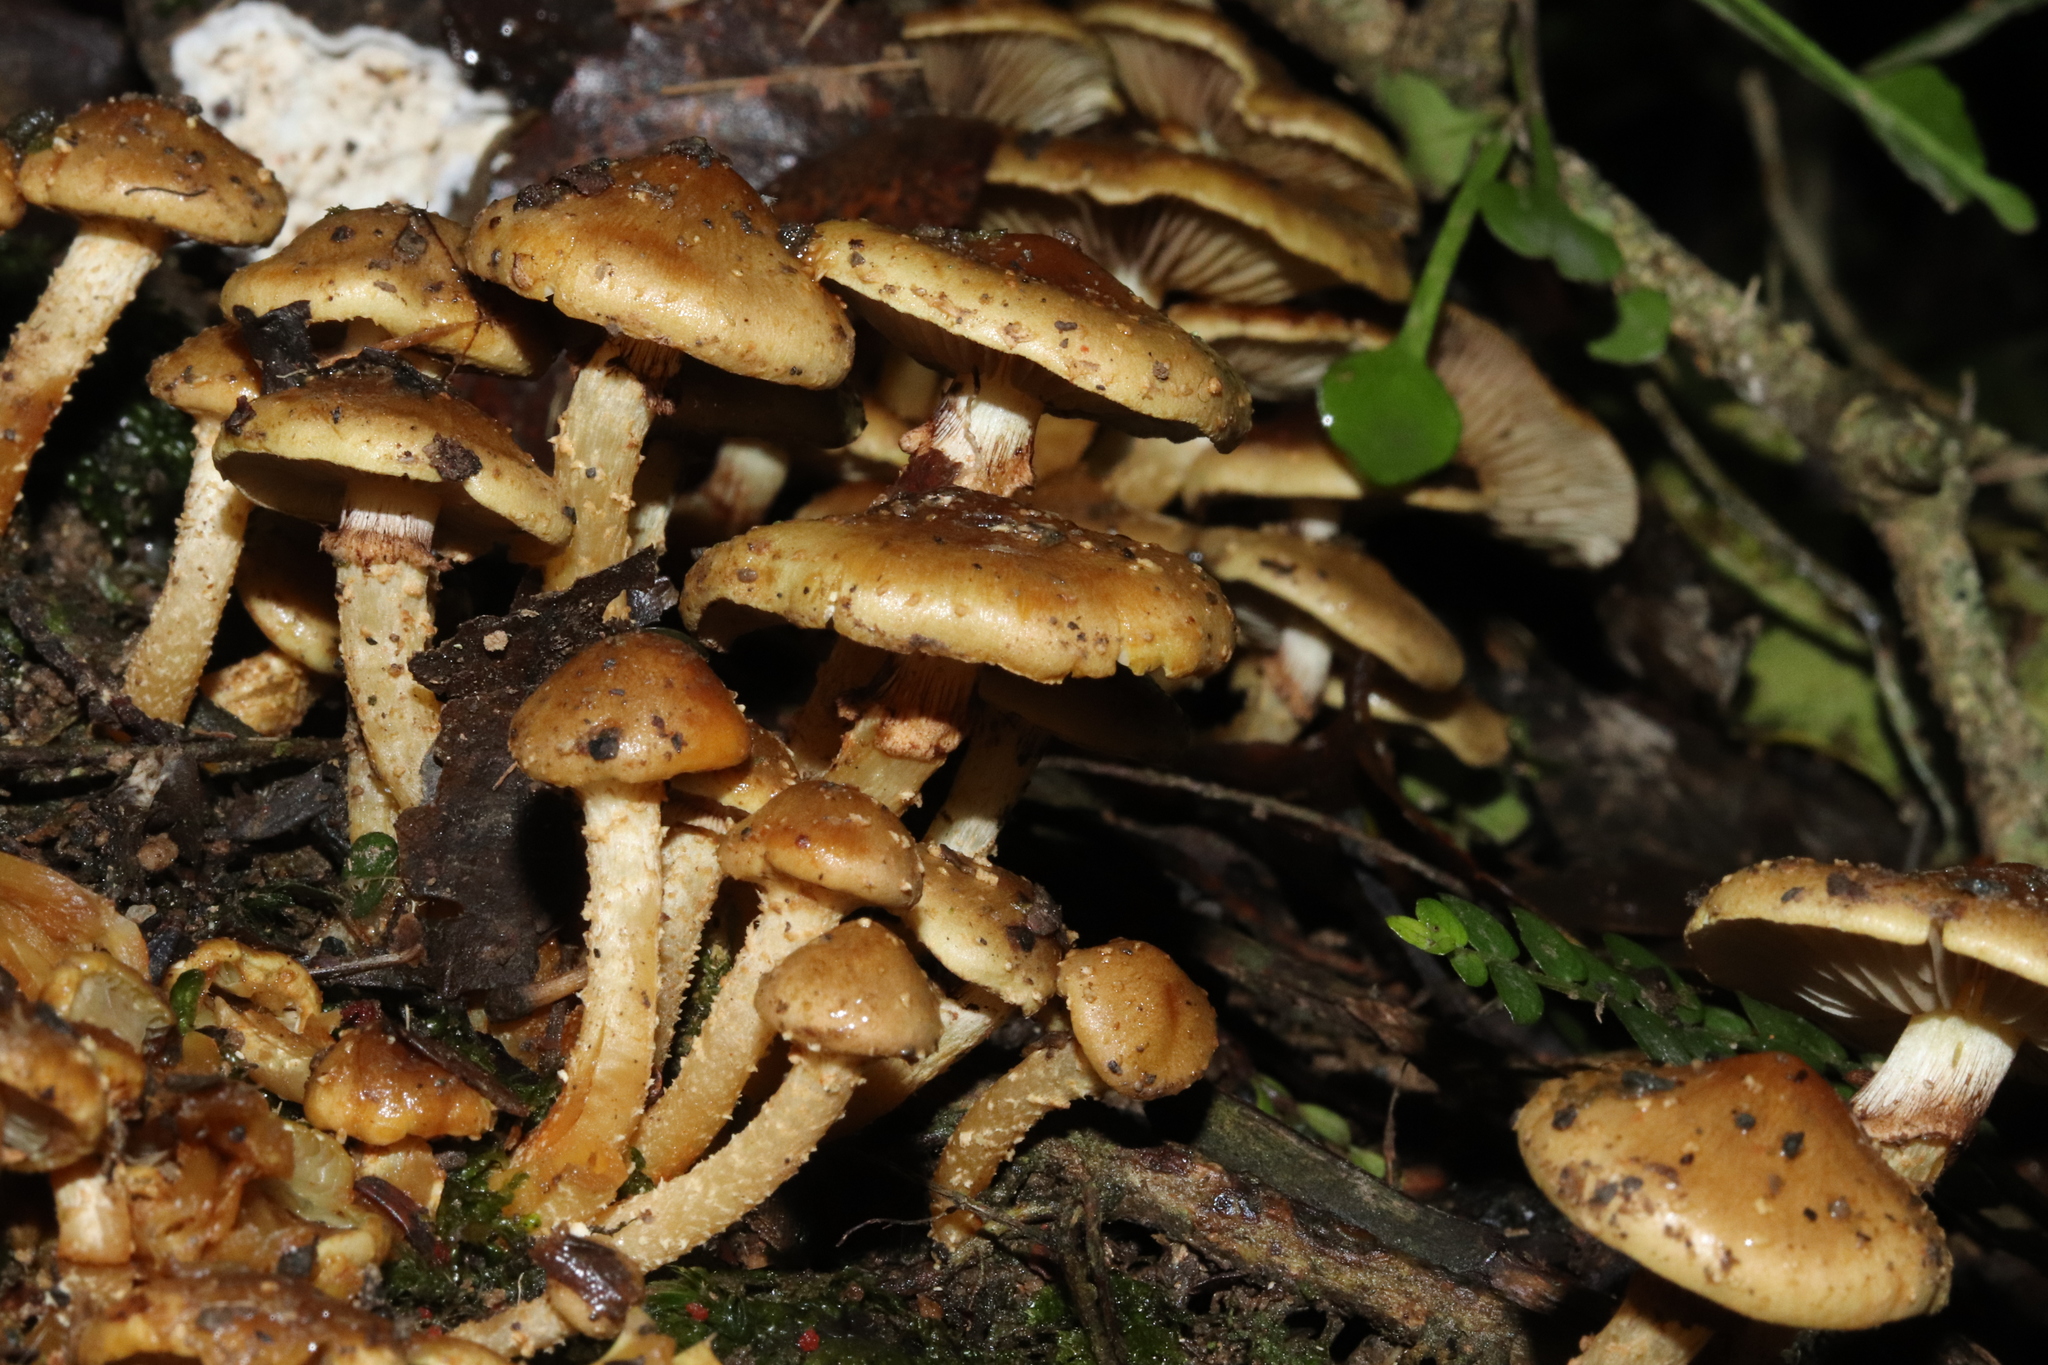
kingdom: Fungi
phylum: Basidiomycota
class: Agaricomycetes
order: Agaricales
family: Strophariaceae
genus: Pholiota
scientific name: Pholiota subflammans
